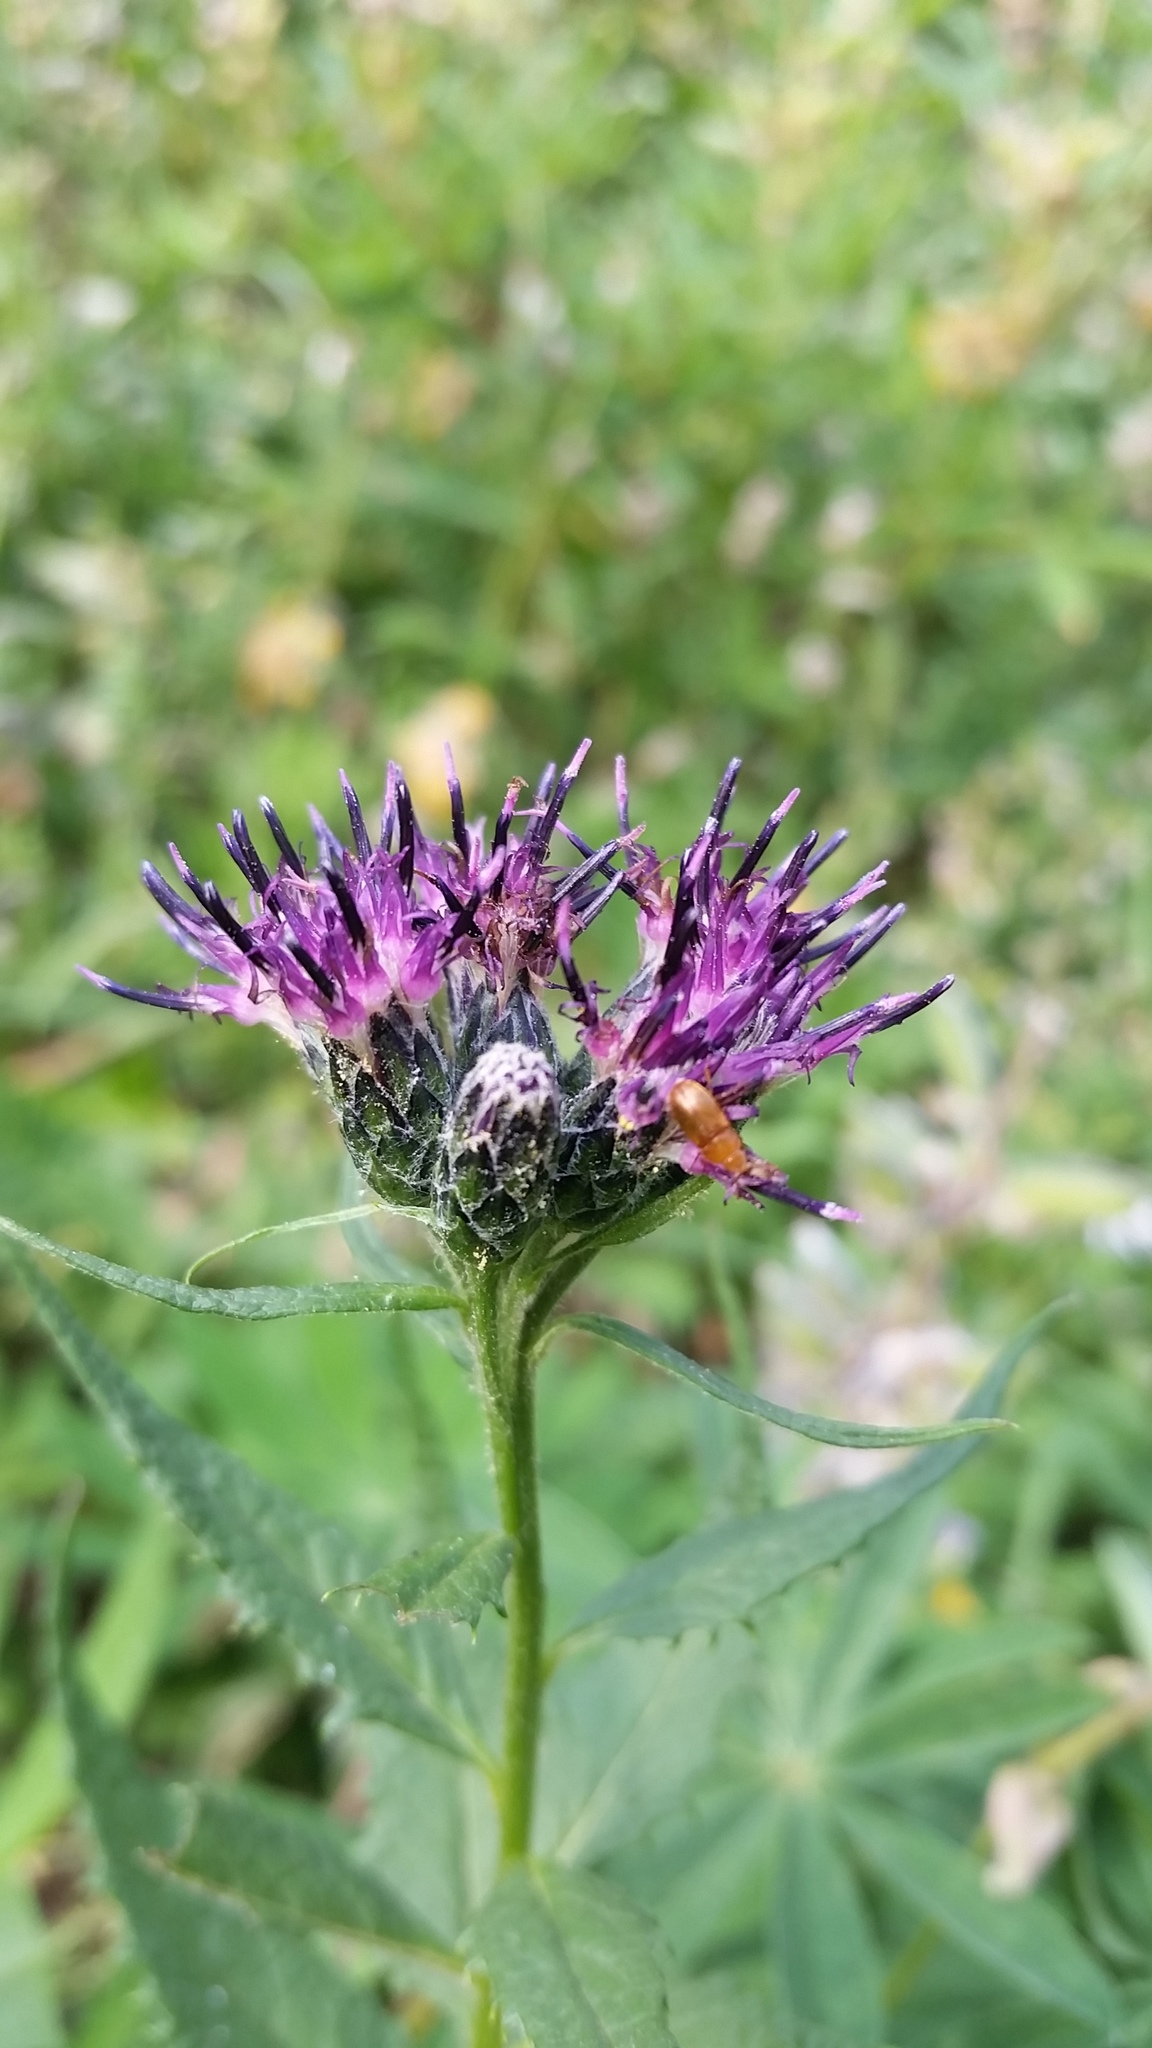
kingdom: Plantae
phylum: Tracheophyta
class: Magnoliopsida
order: Asterales
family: Asteraceae
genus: Saussurea
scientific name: Saussurea americana
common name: American saw-wort
